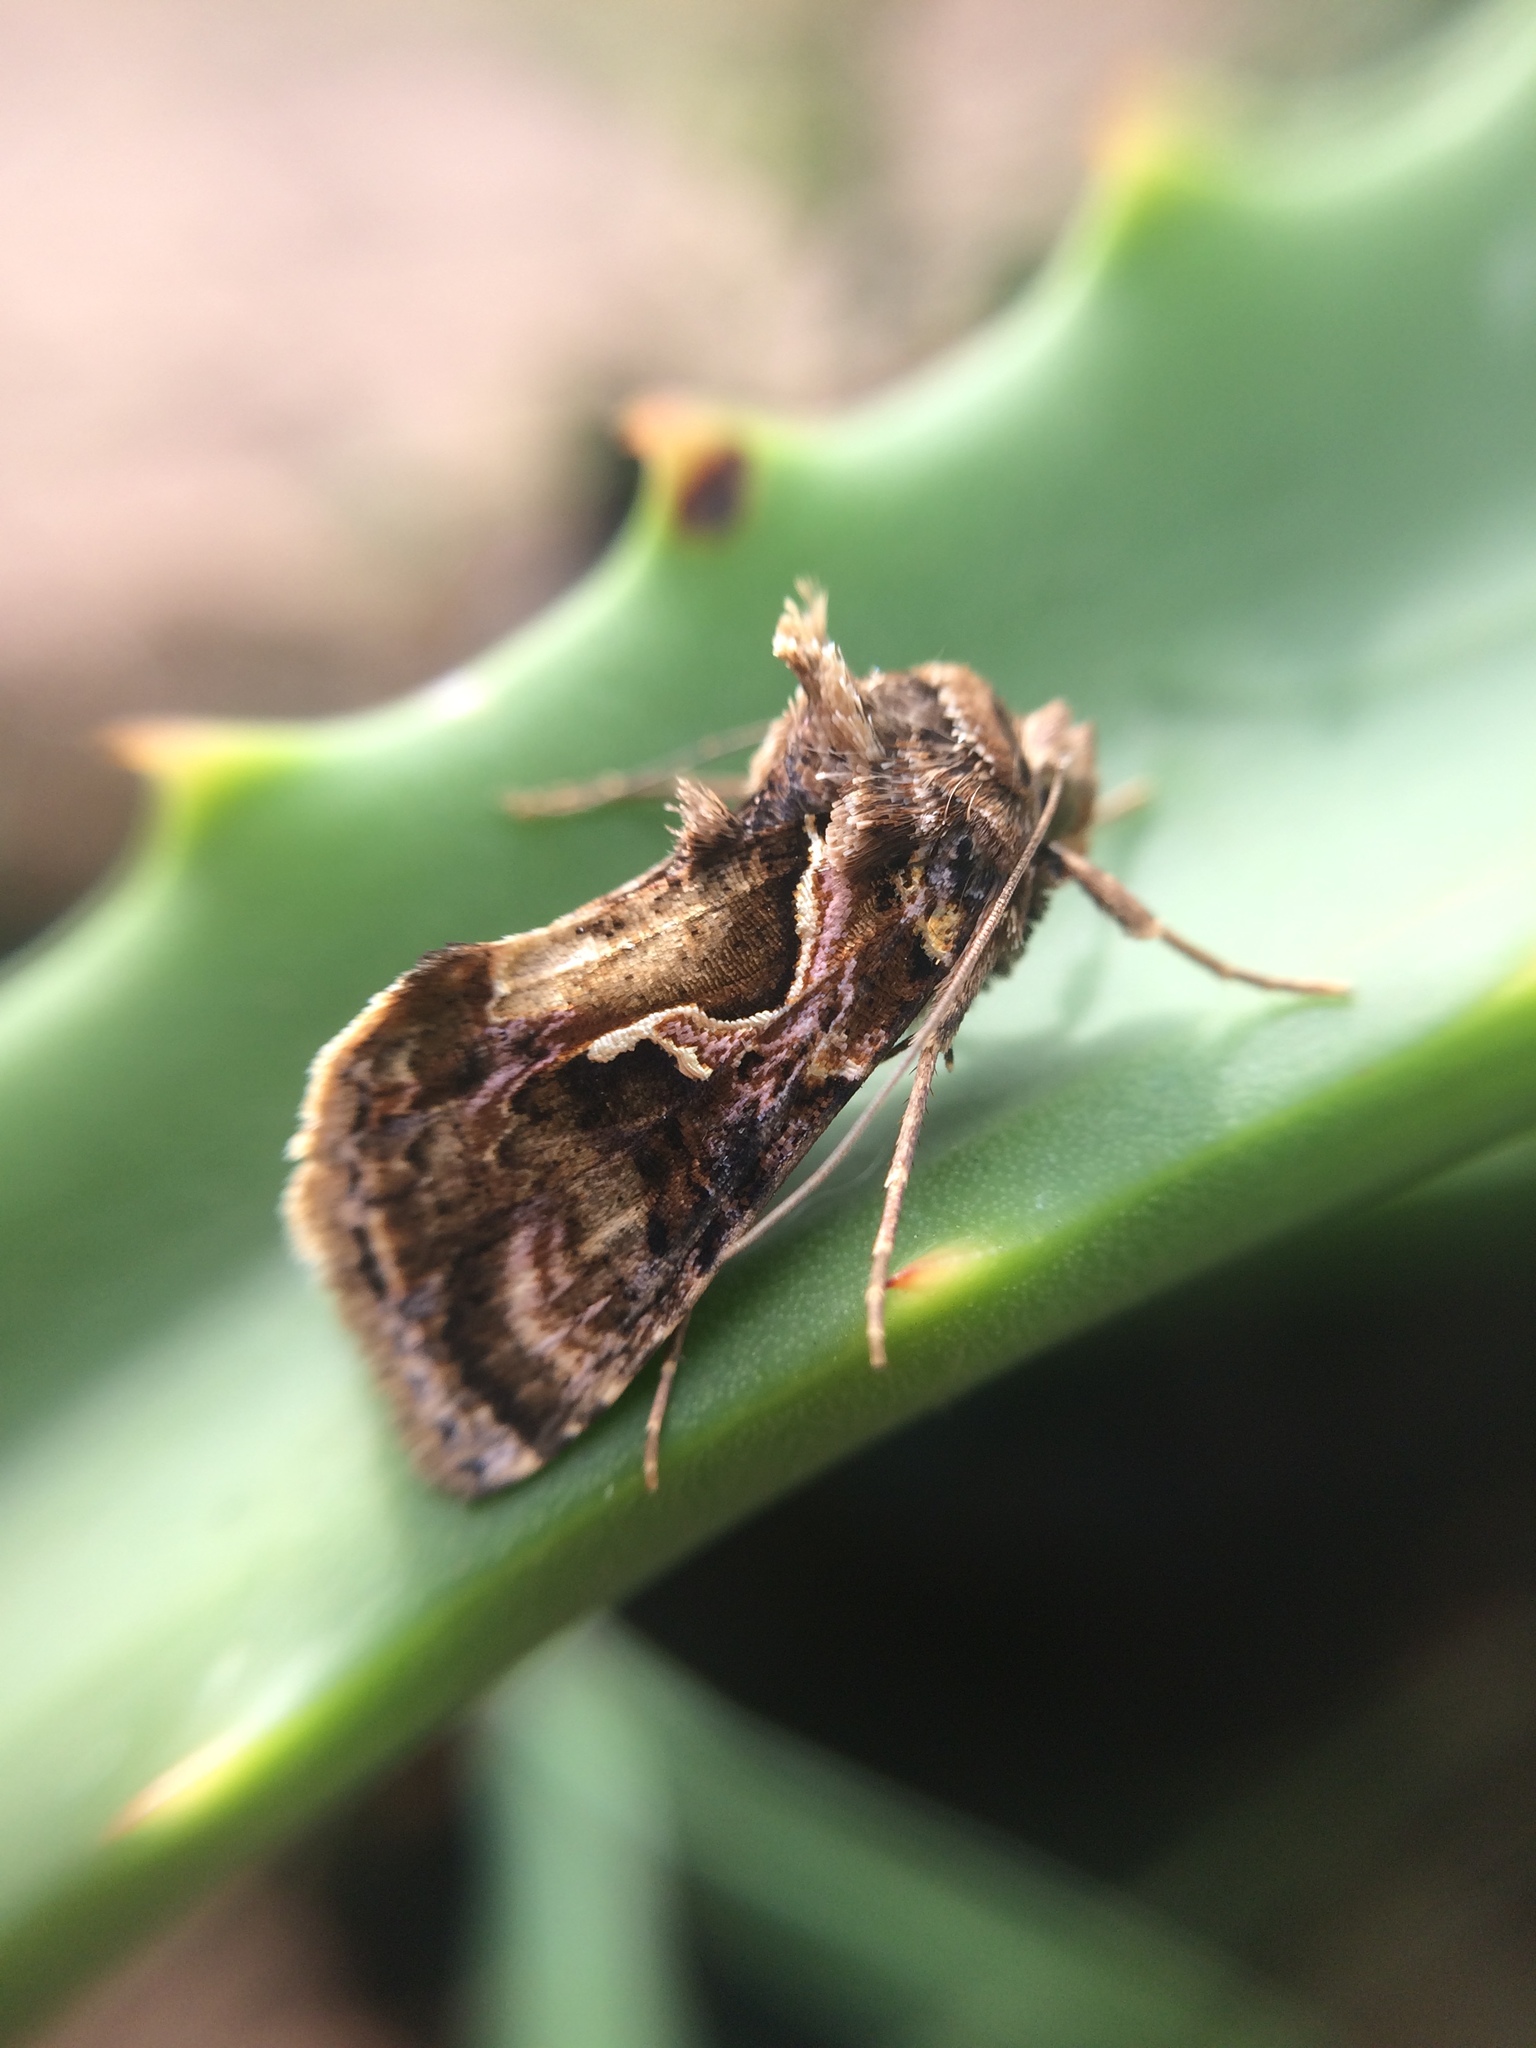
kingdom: Animalia
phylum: Arthropoda
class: Insecta
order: Lepidoptera
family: Noctuidae
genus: Ctenoplusia
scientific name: Ctenoplusia dorfmeisteri
